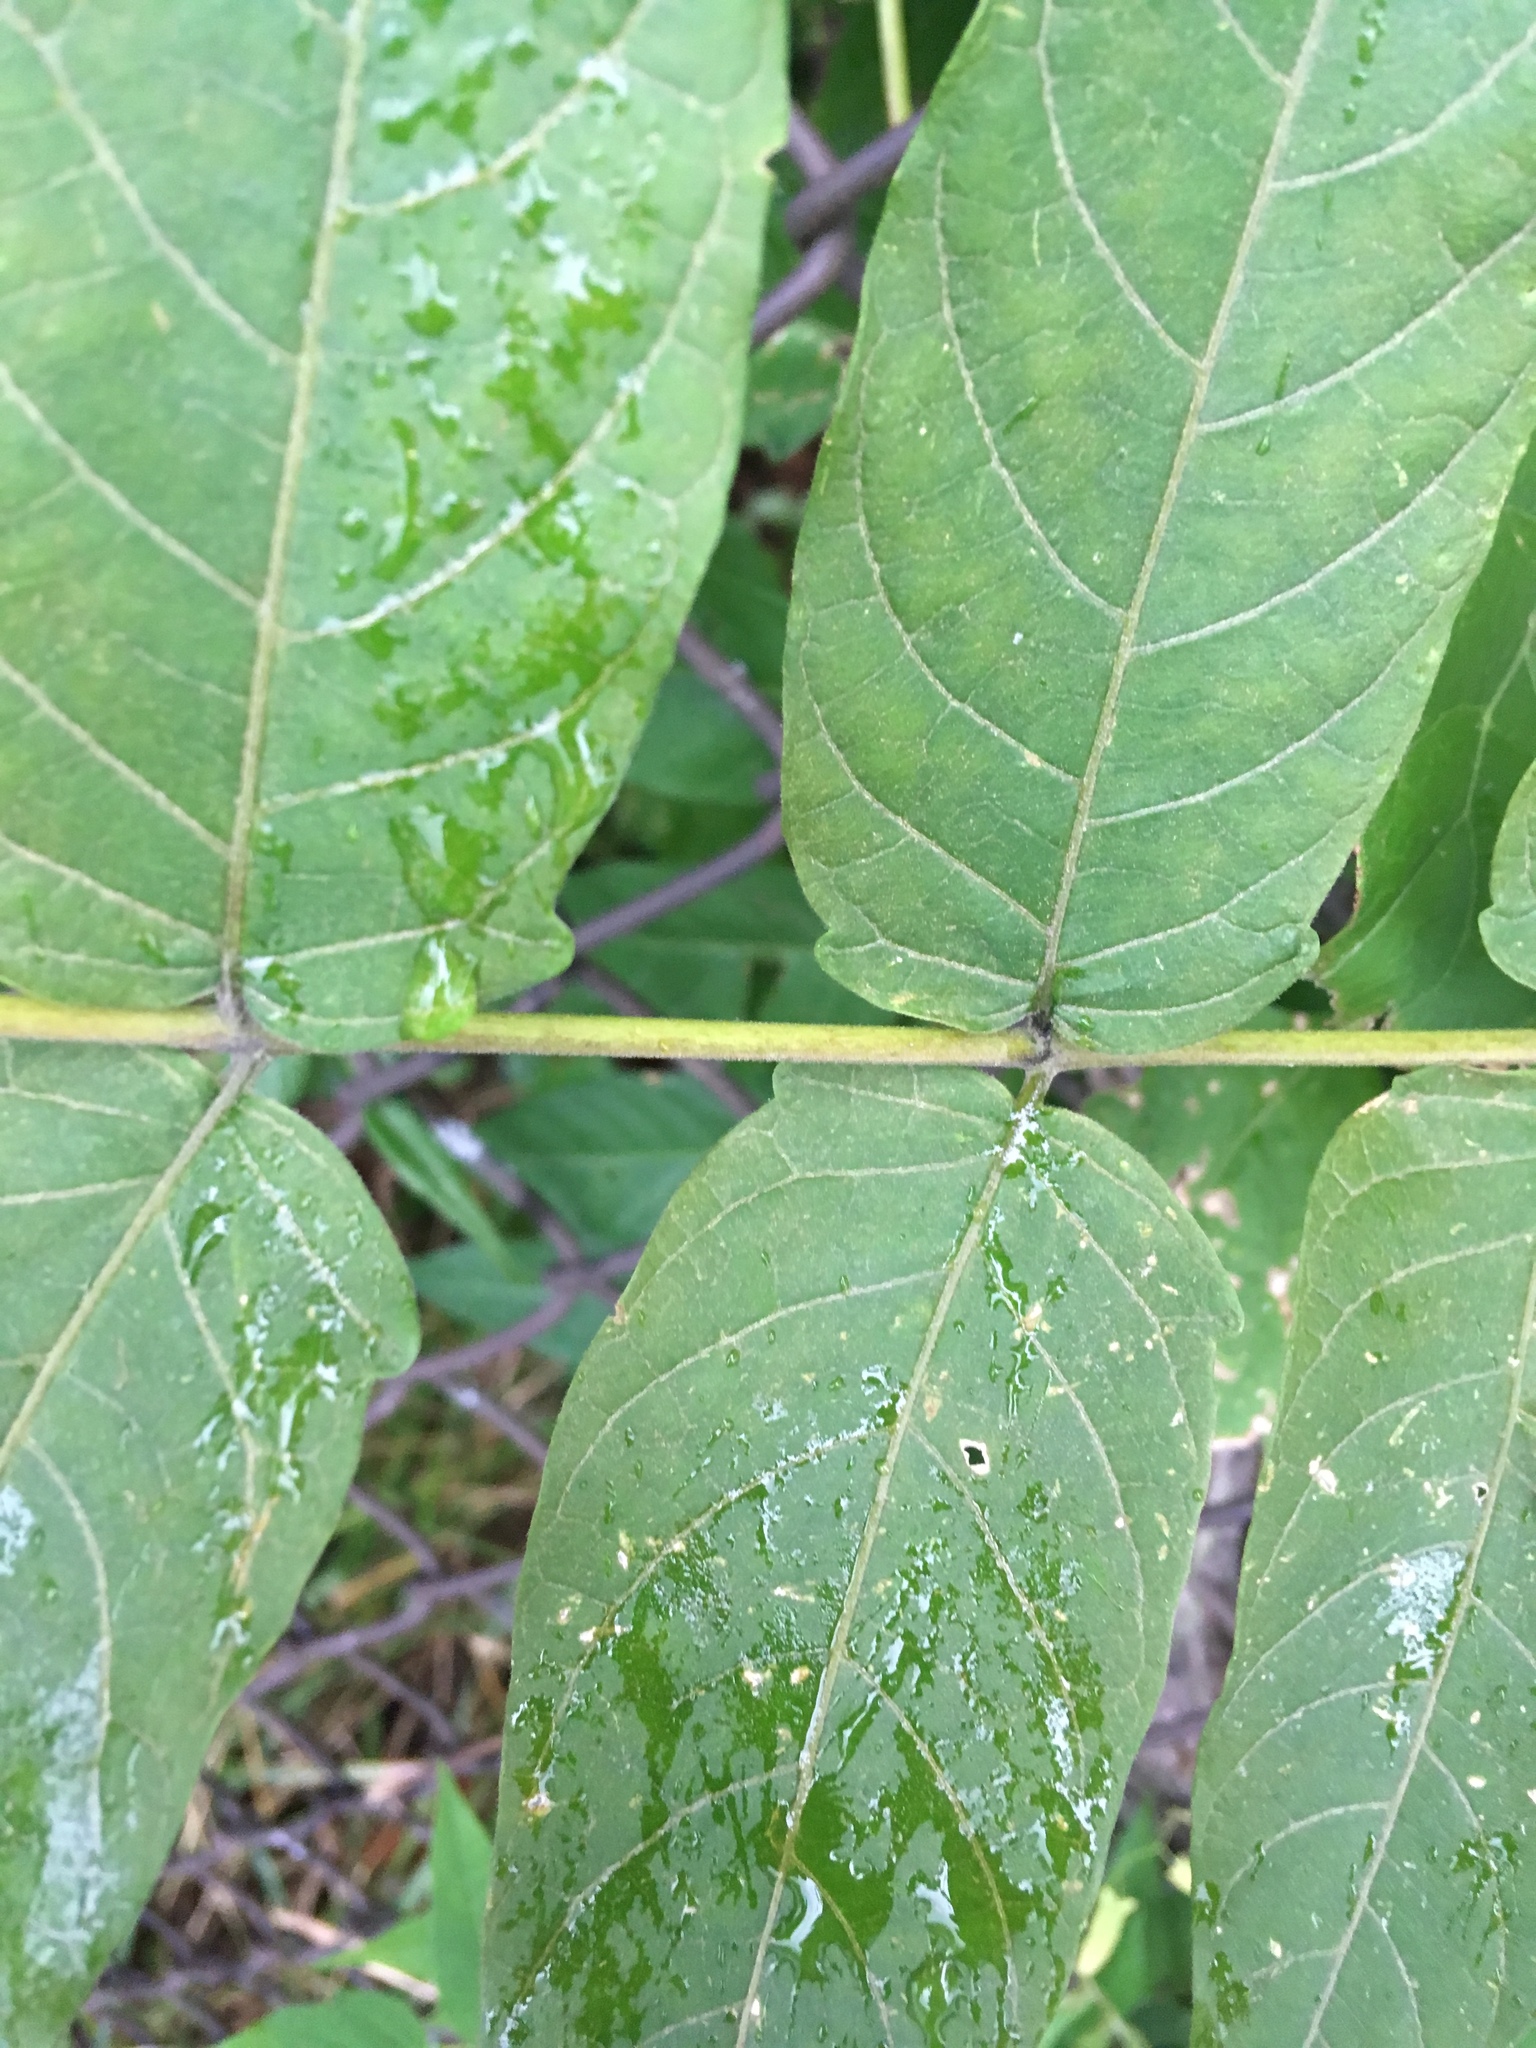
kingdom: Plantae
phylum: Tracheophyta
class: Magnoliopsida
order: Sapindales
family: Simaroubaceae
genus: Ailanthus
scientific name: Ailanthus altissima
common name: Tree-of-heaven
